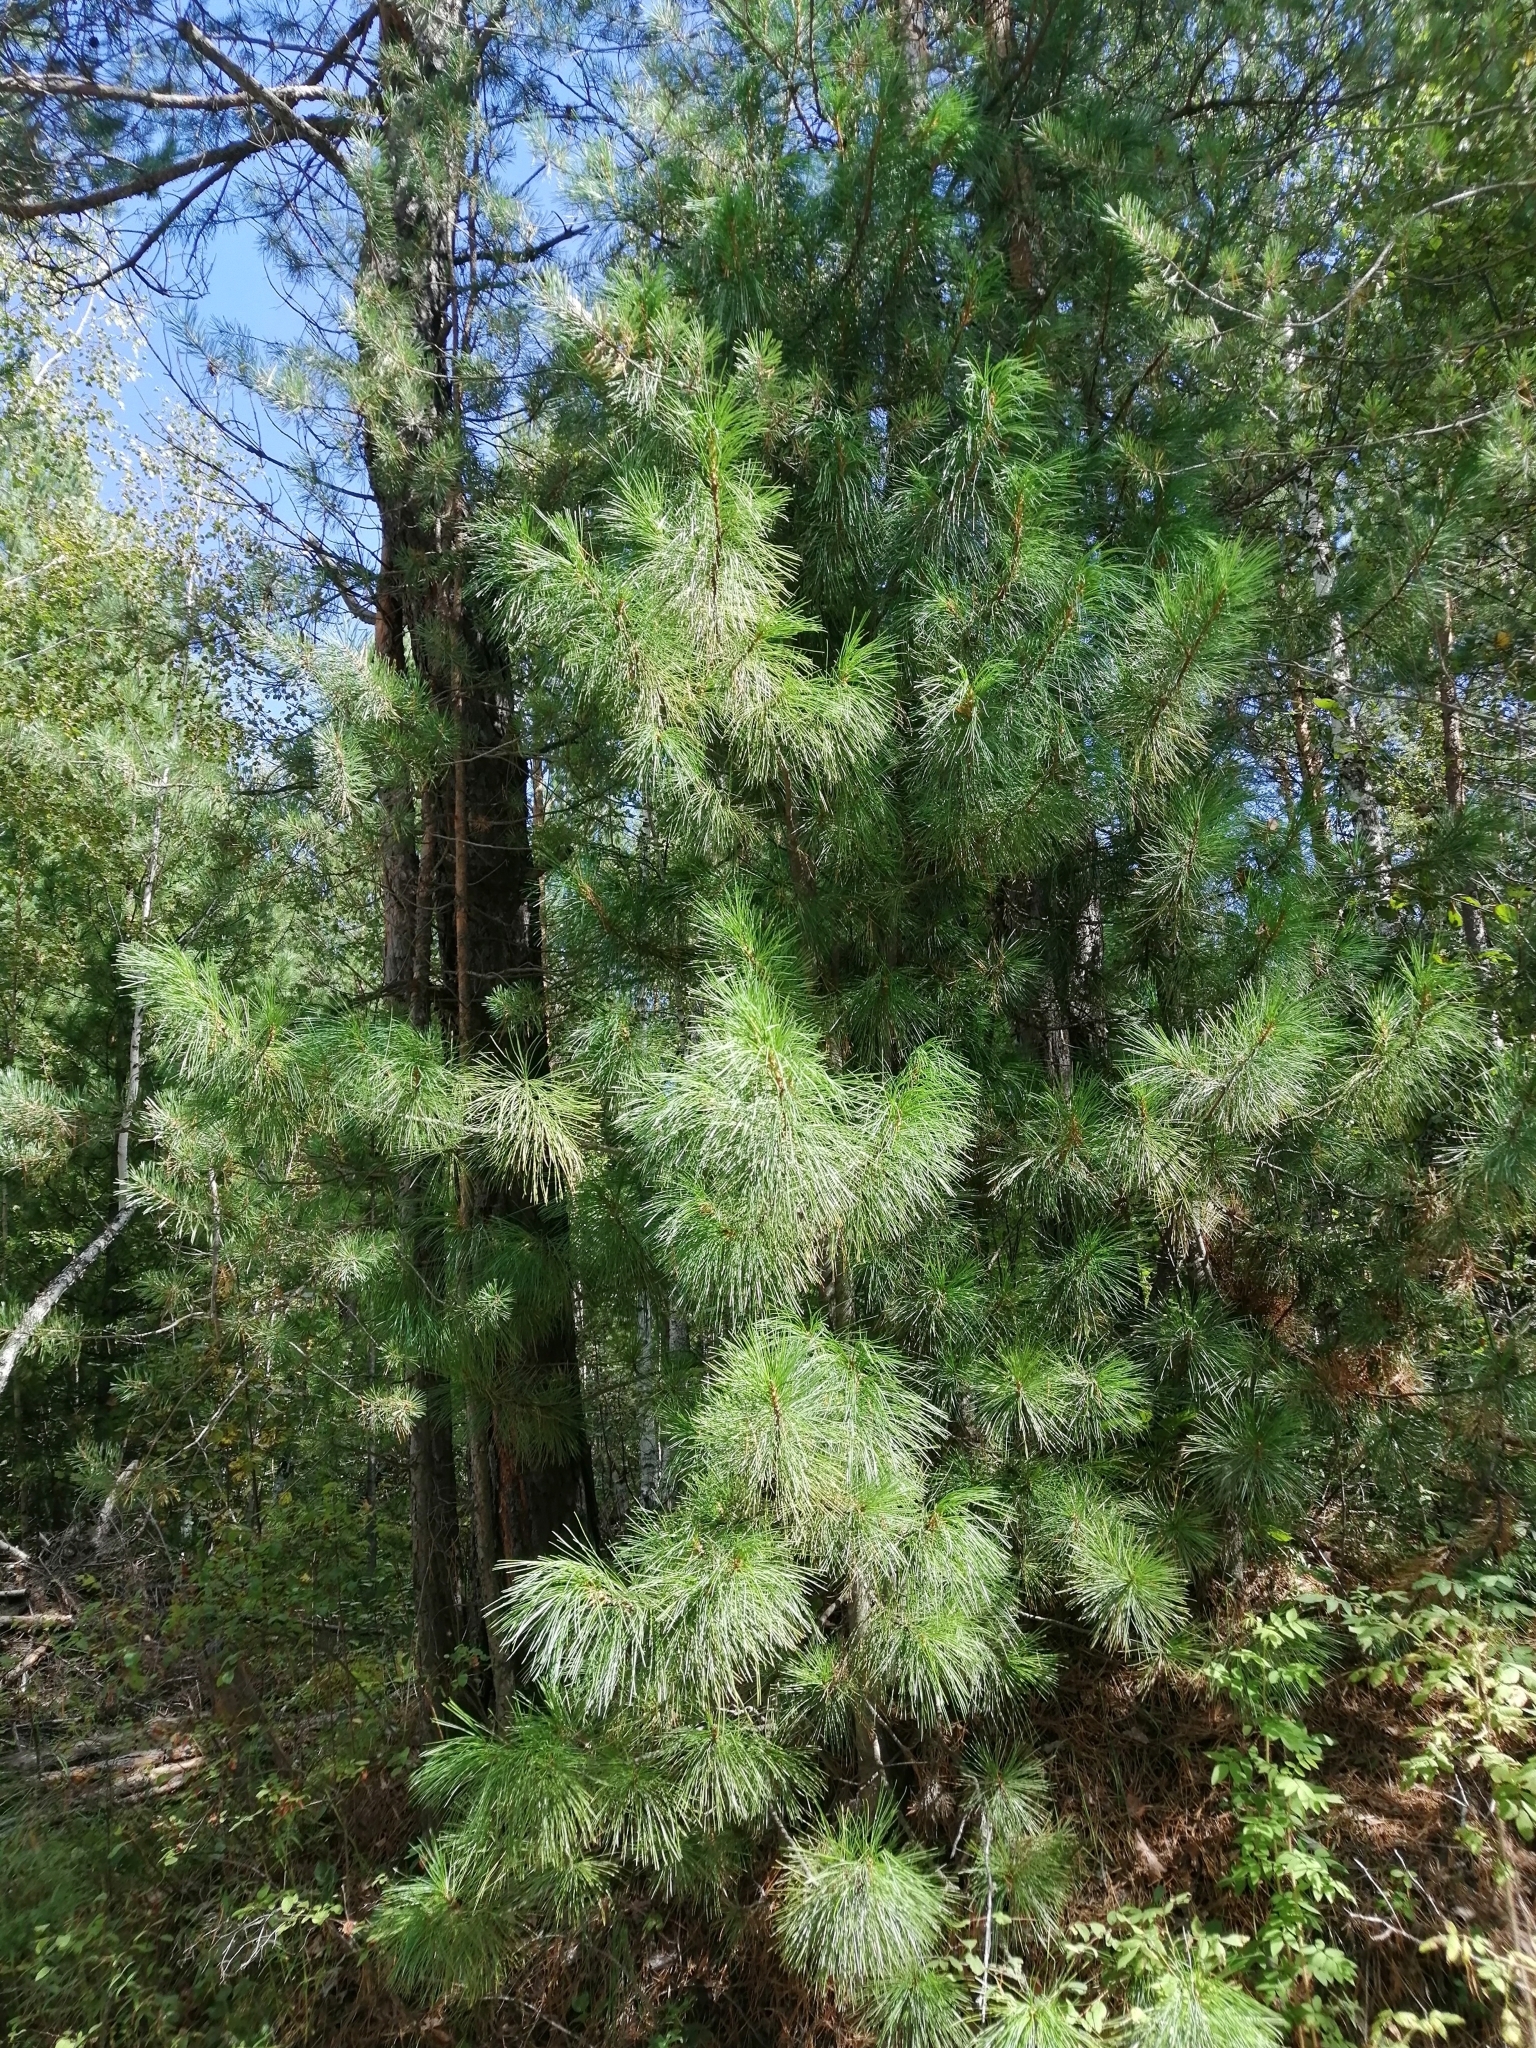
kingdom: Plantae
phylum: Tracheophyta
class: Pinopsida
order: Pinales
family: Pinaceae
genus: Pinus
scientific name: Pinus sibirica
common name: Siberian pine
